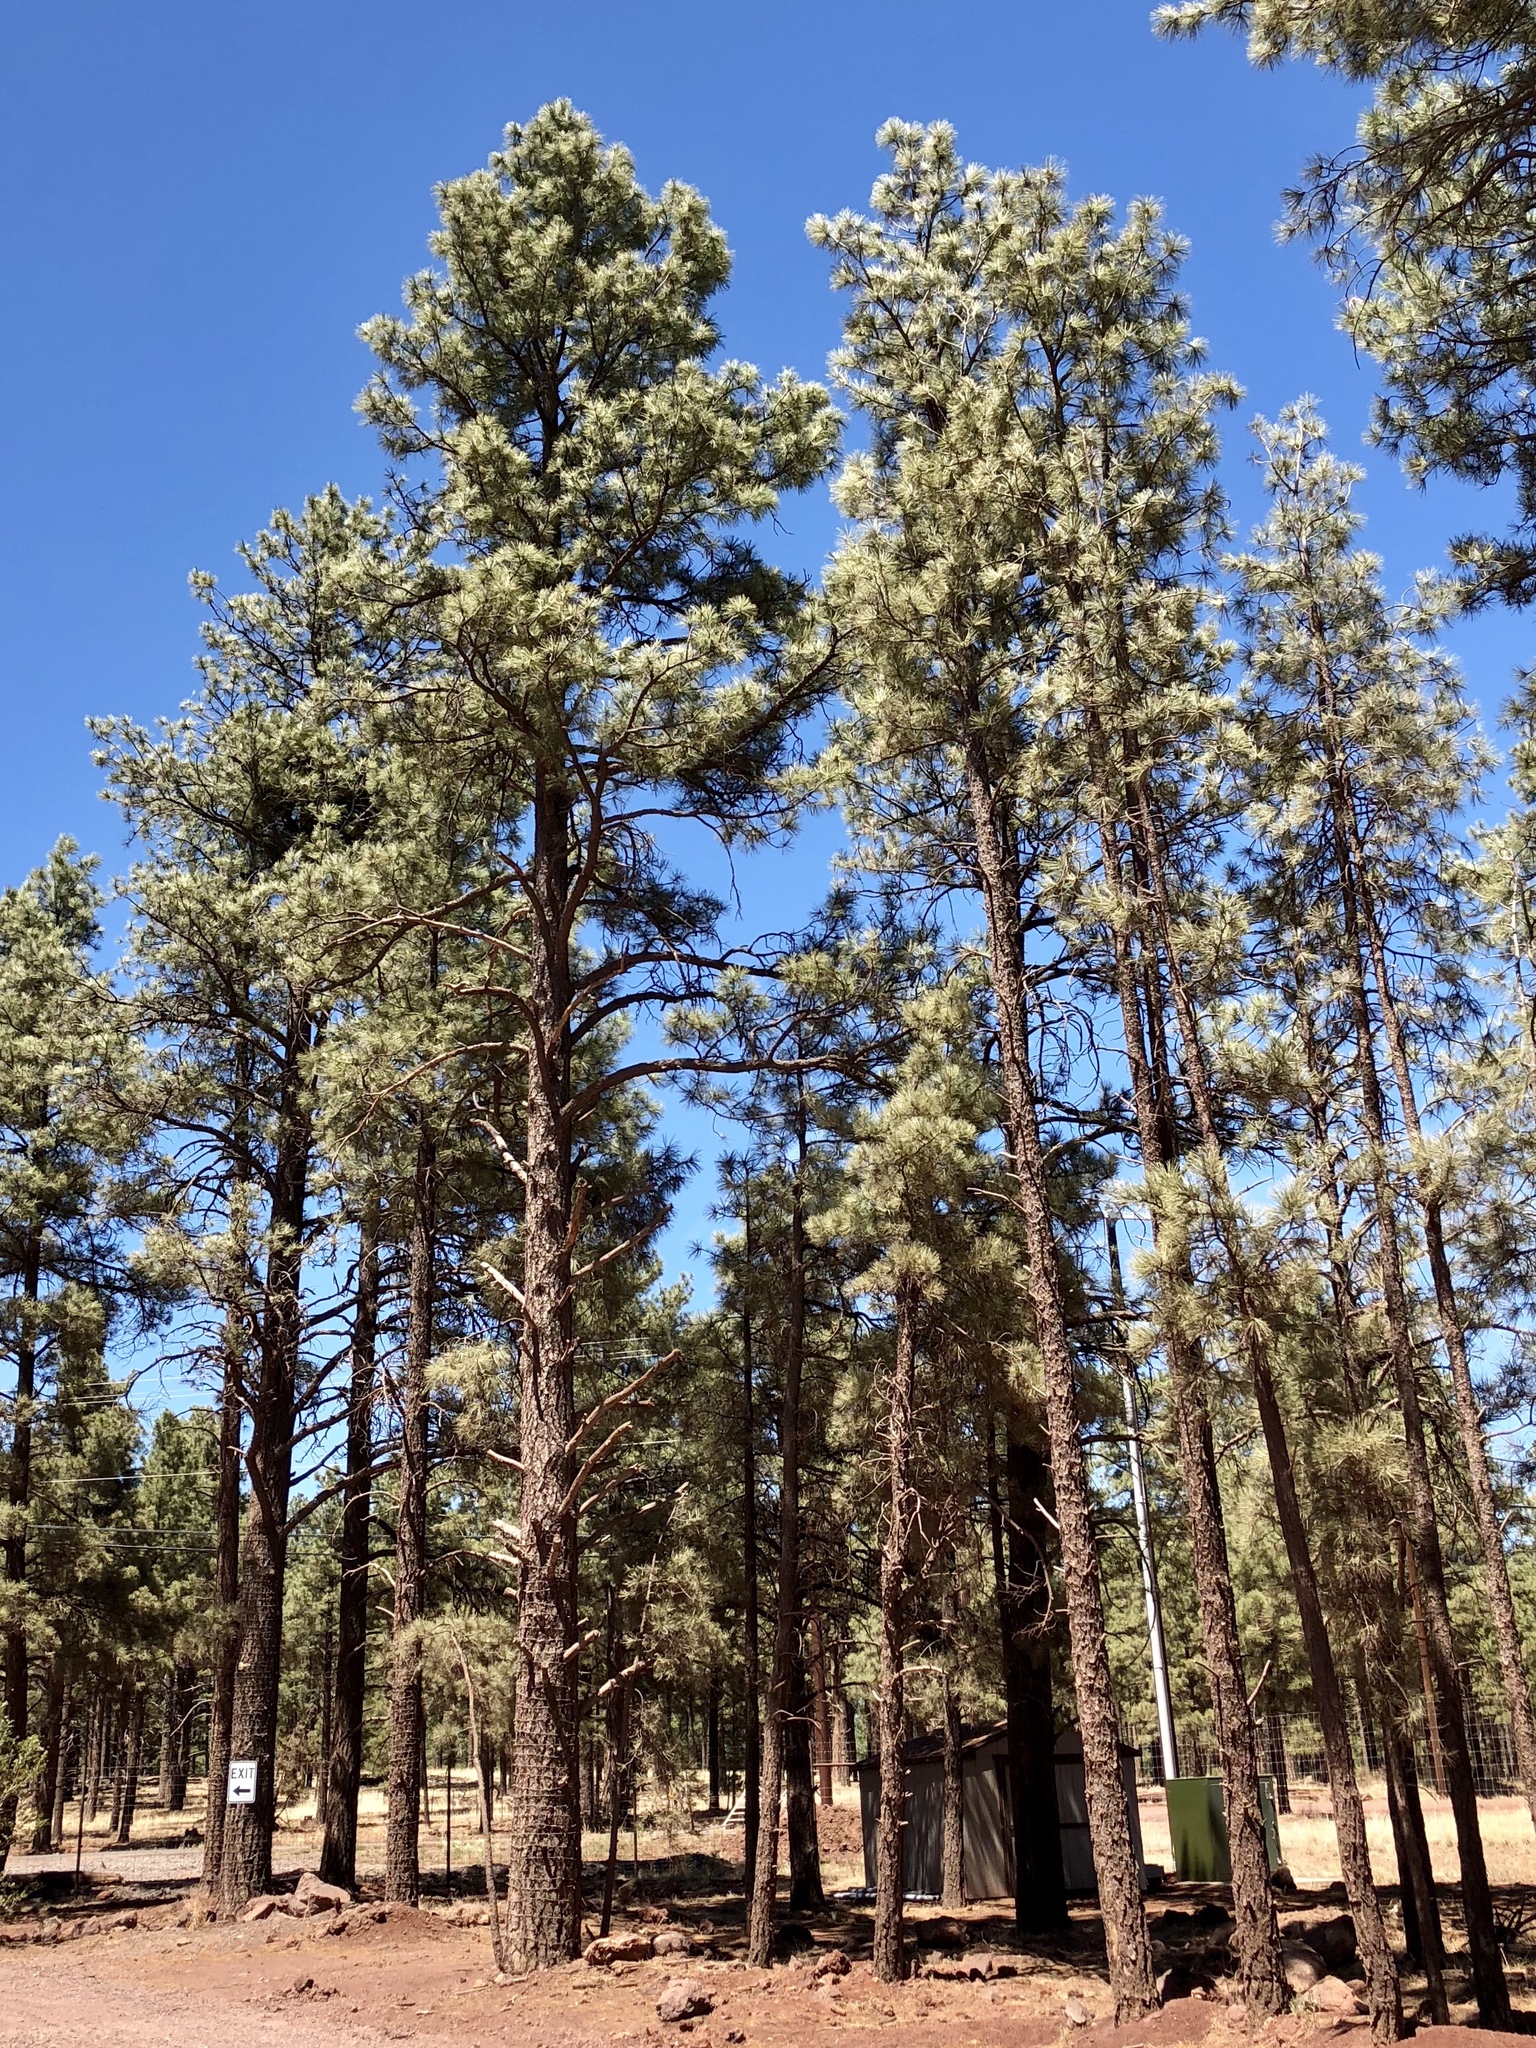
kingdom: Plantae
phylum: Tracheophyta
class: Pinopsida
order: Pinales
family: Pinaceae
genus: Pinus
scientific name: Pinus ponderosa
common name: Western yellow-pine
